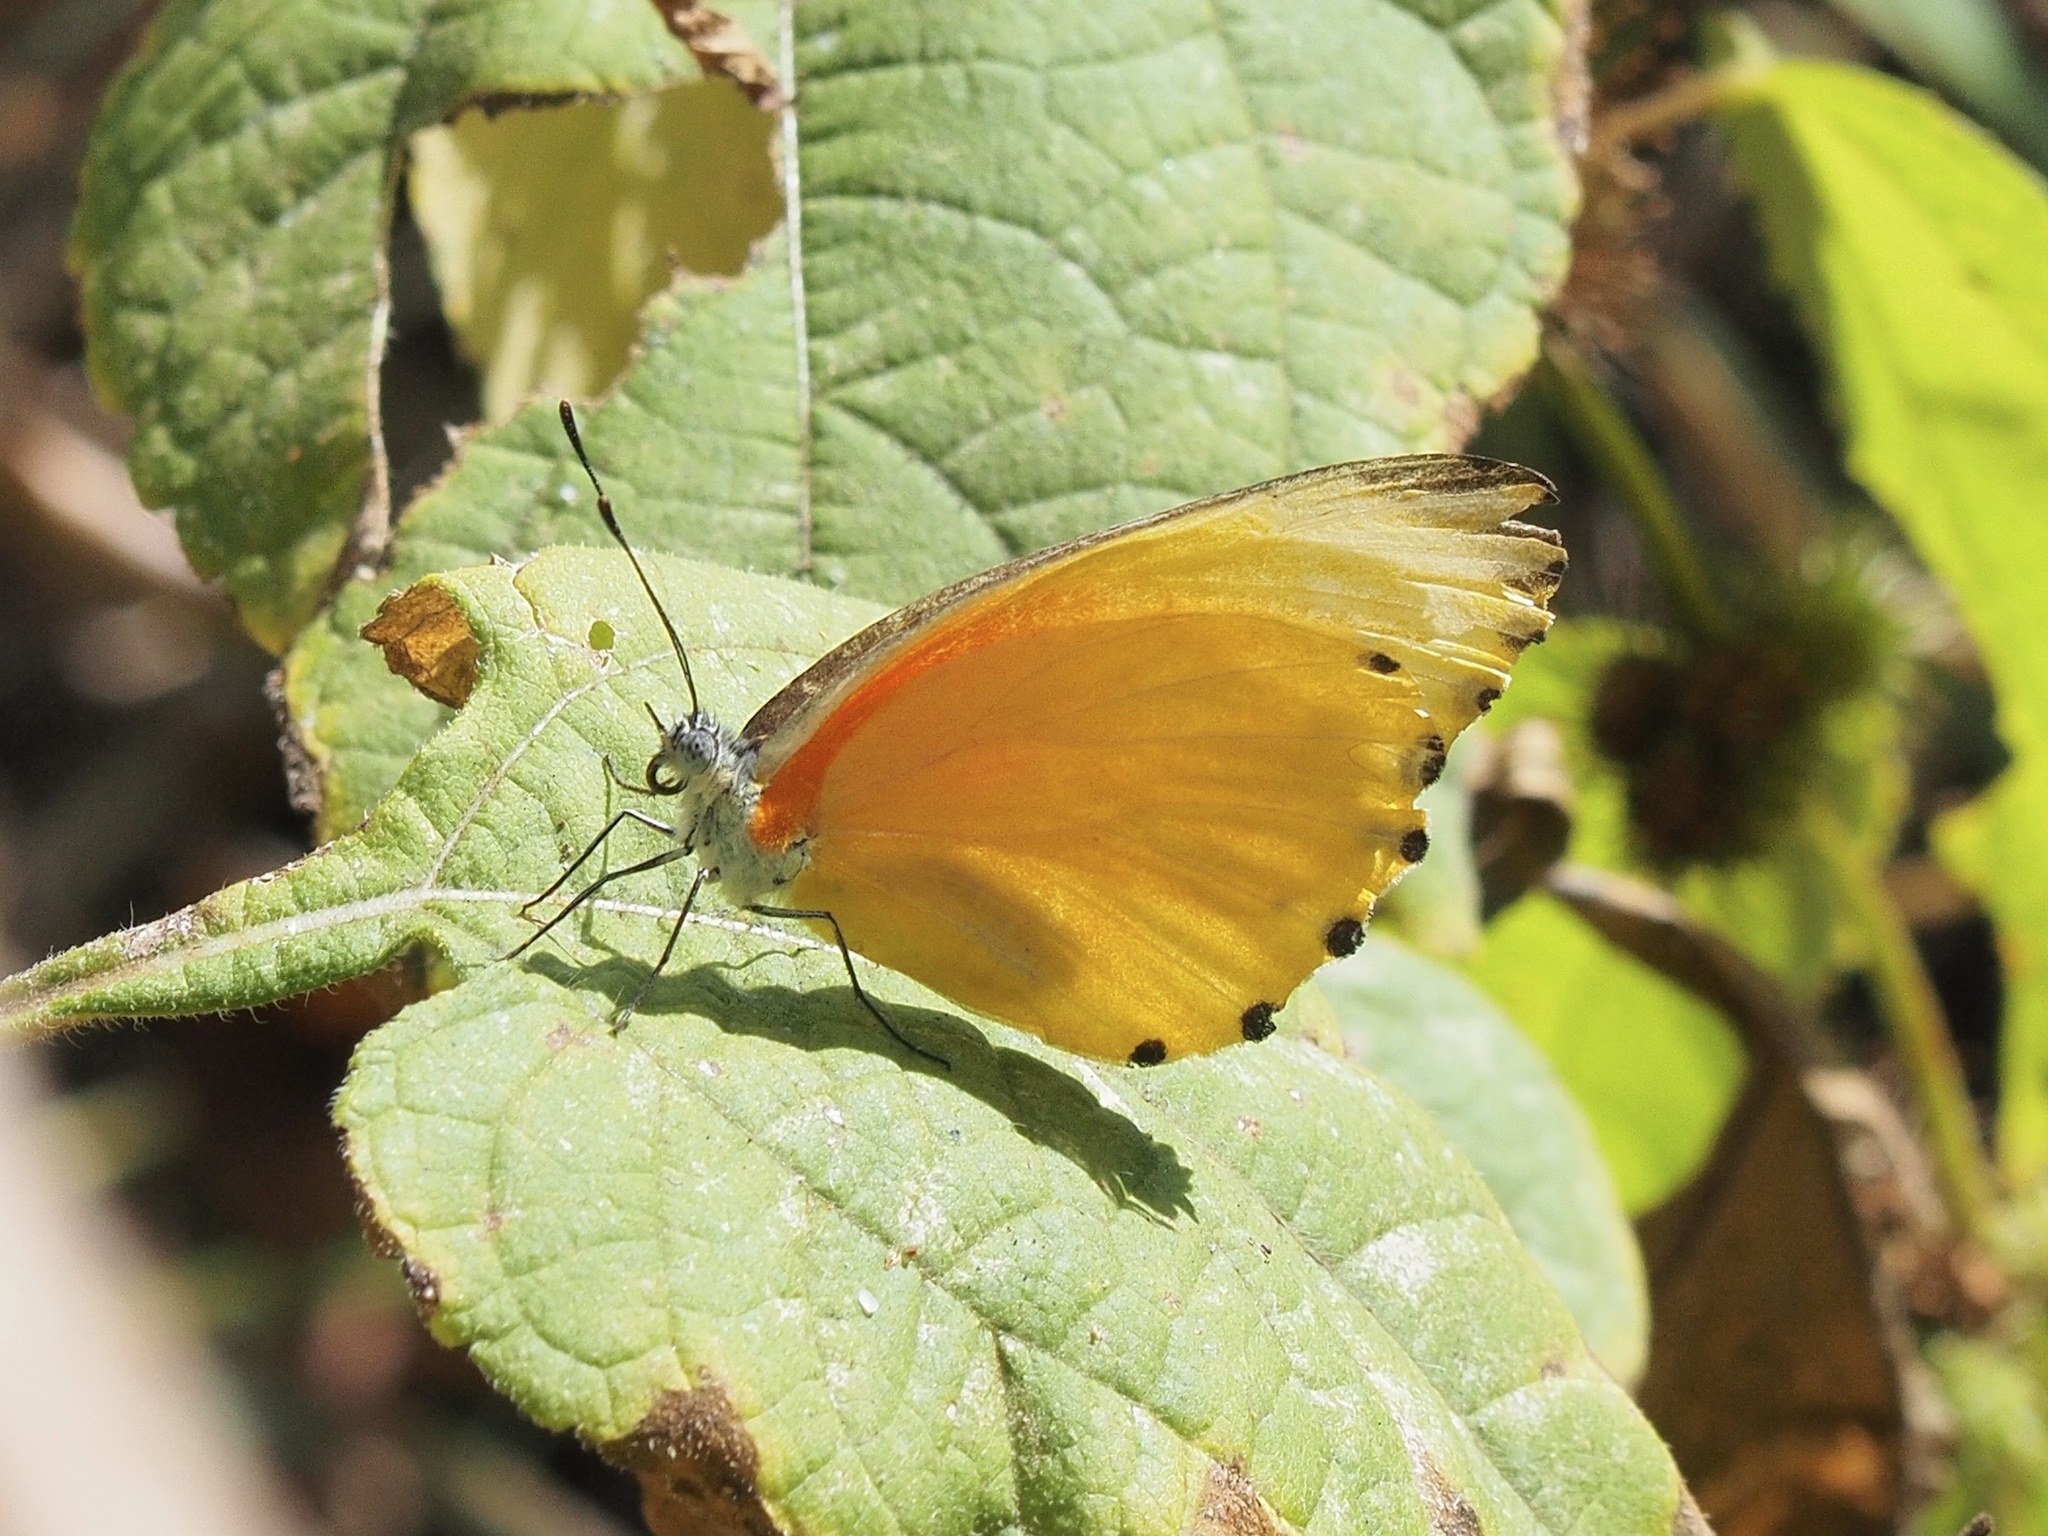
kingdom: Animalia
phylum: Arthropoda
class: Insecta
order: Lepidoptera
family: Pieridae
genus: Mylothris
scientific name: Mylothris agathina
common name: Eastern dotted border
